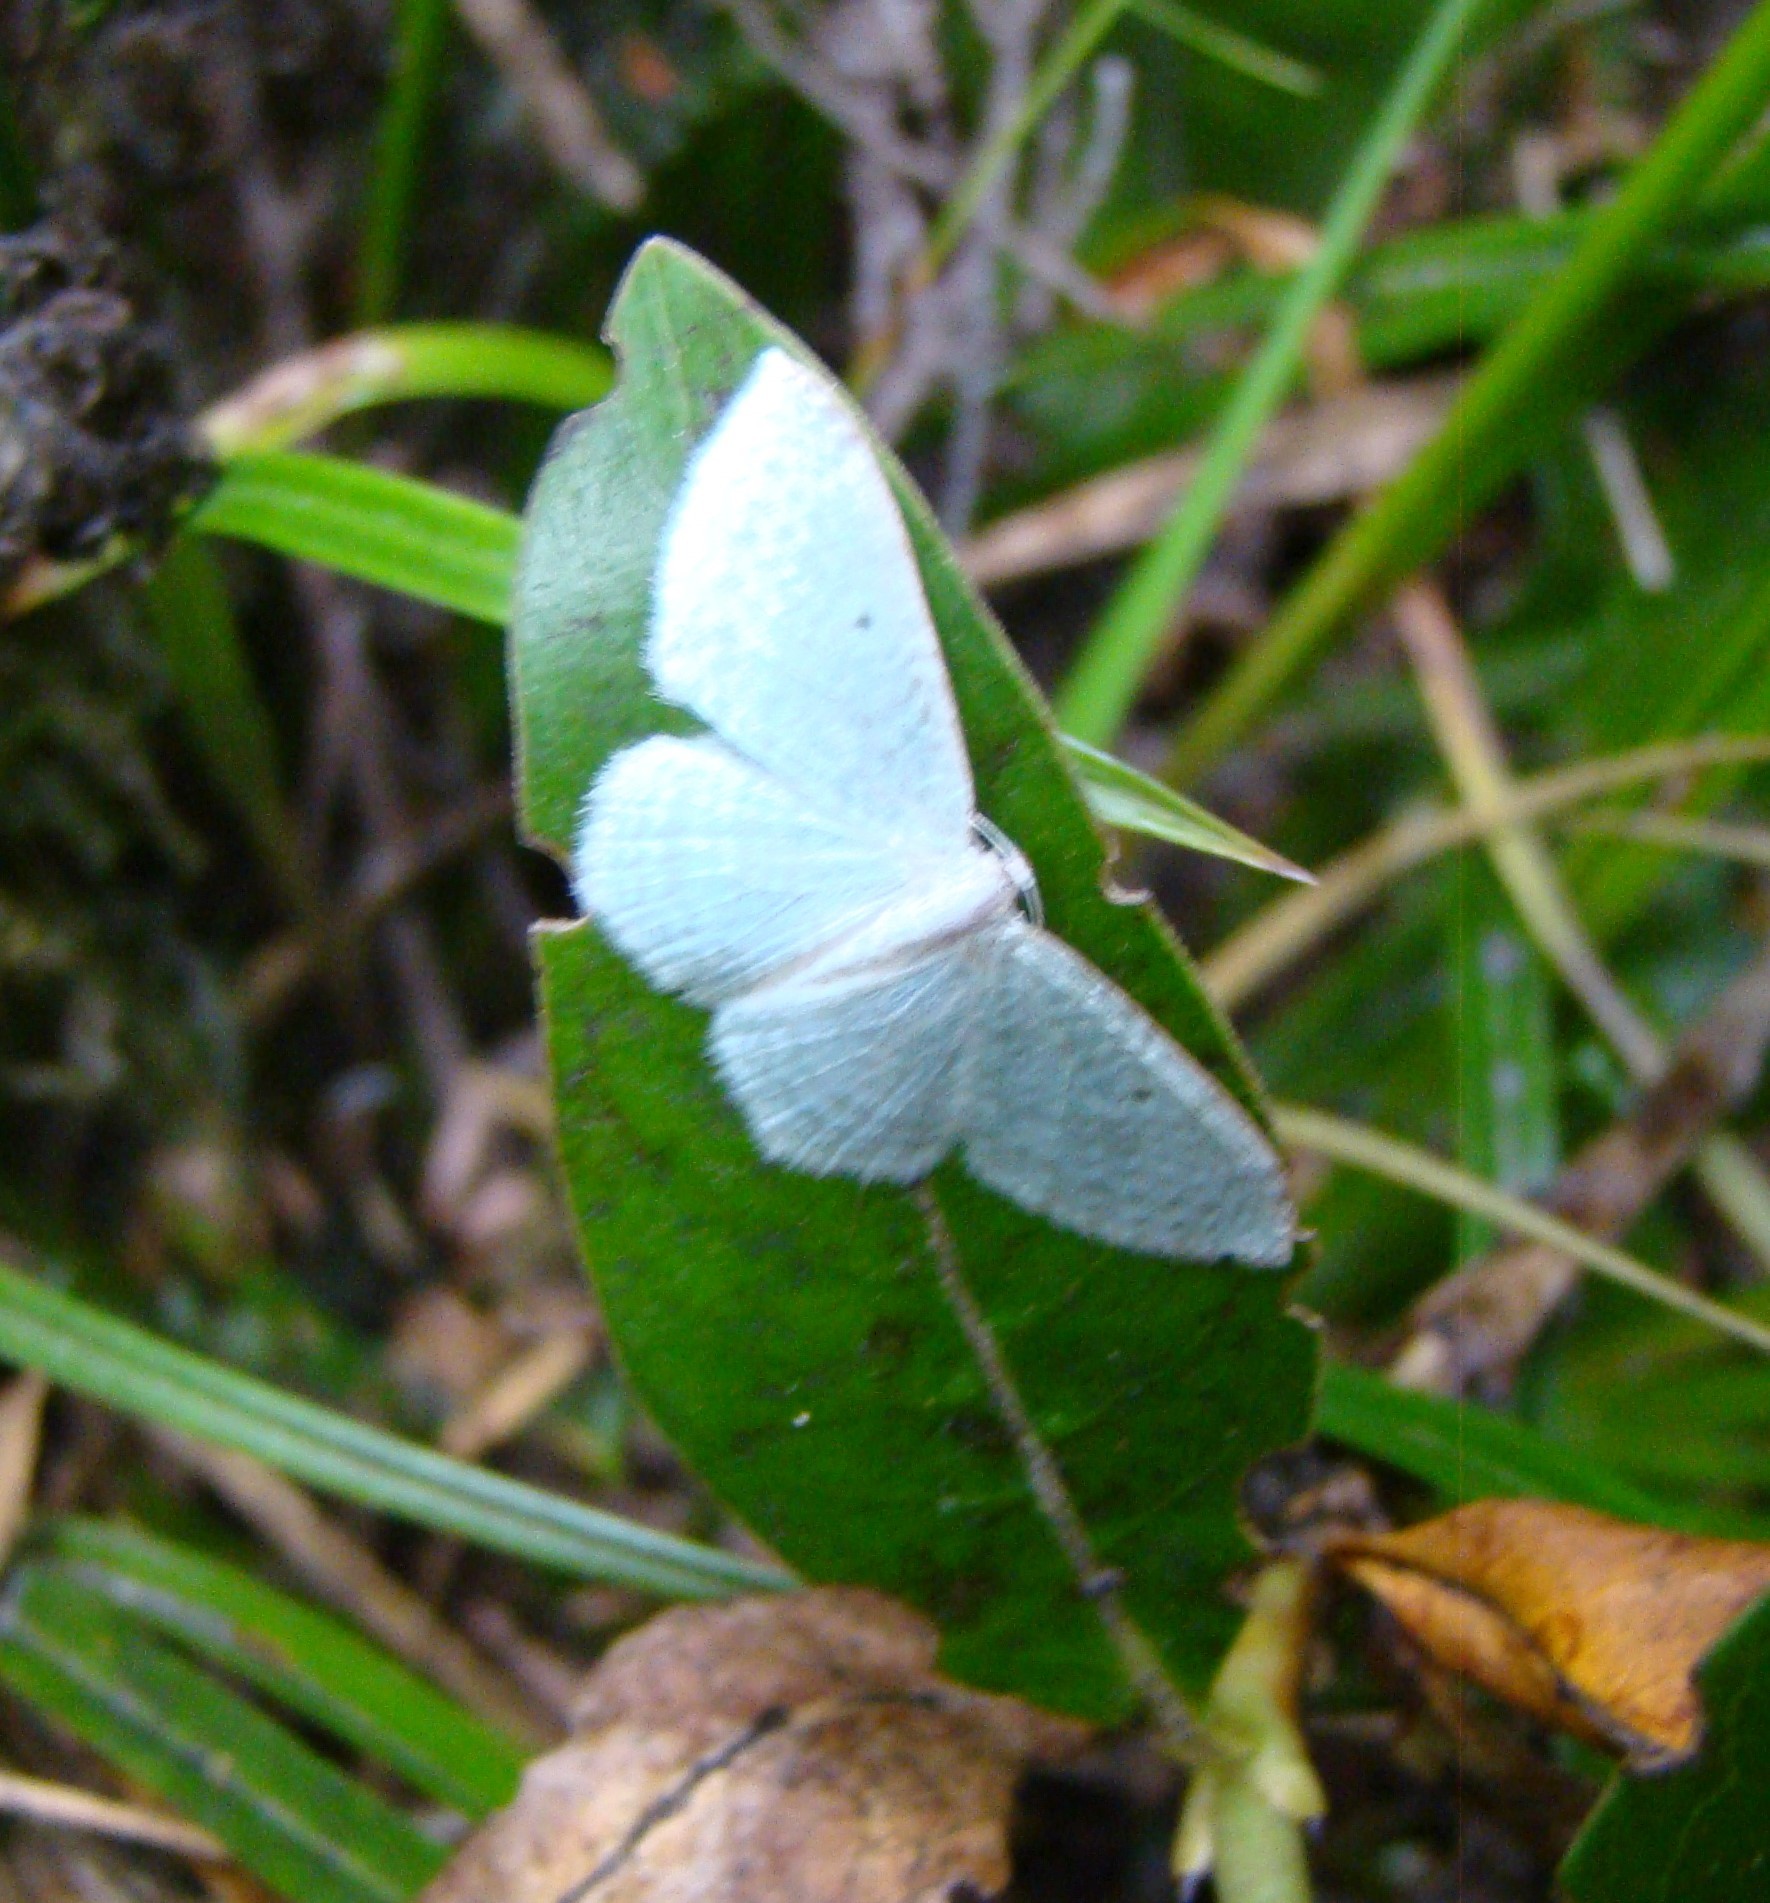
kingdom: Animalia
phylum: Arthropoda
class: Insecta
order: Lepidoptera
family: Geometridae
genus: Poecilasthena
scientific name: Poecilasthena pulchraria
